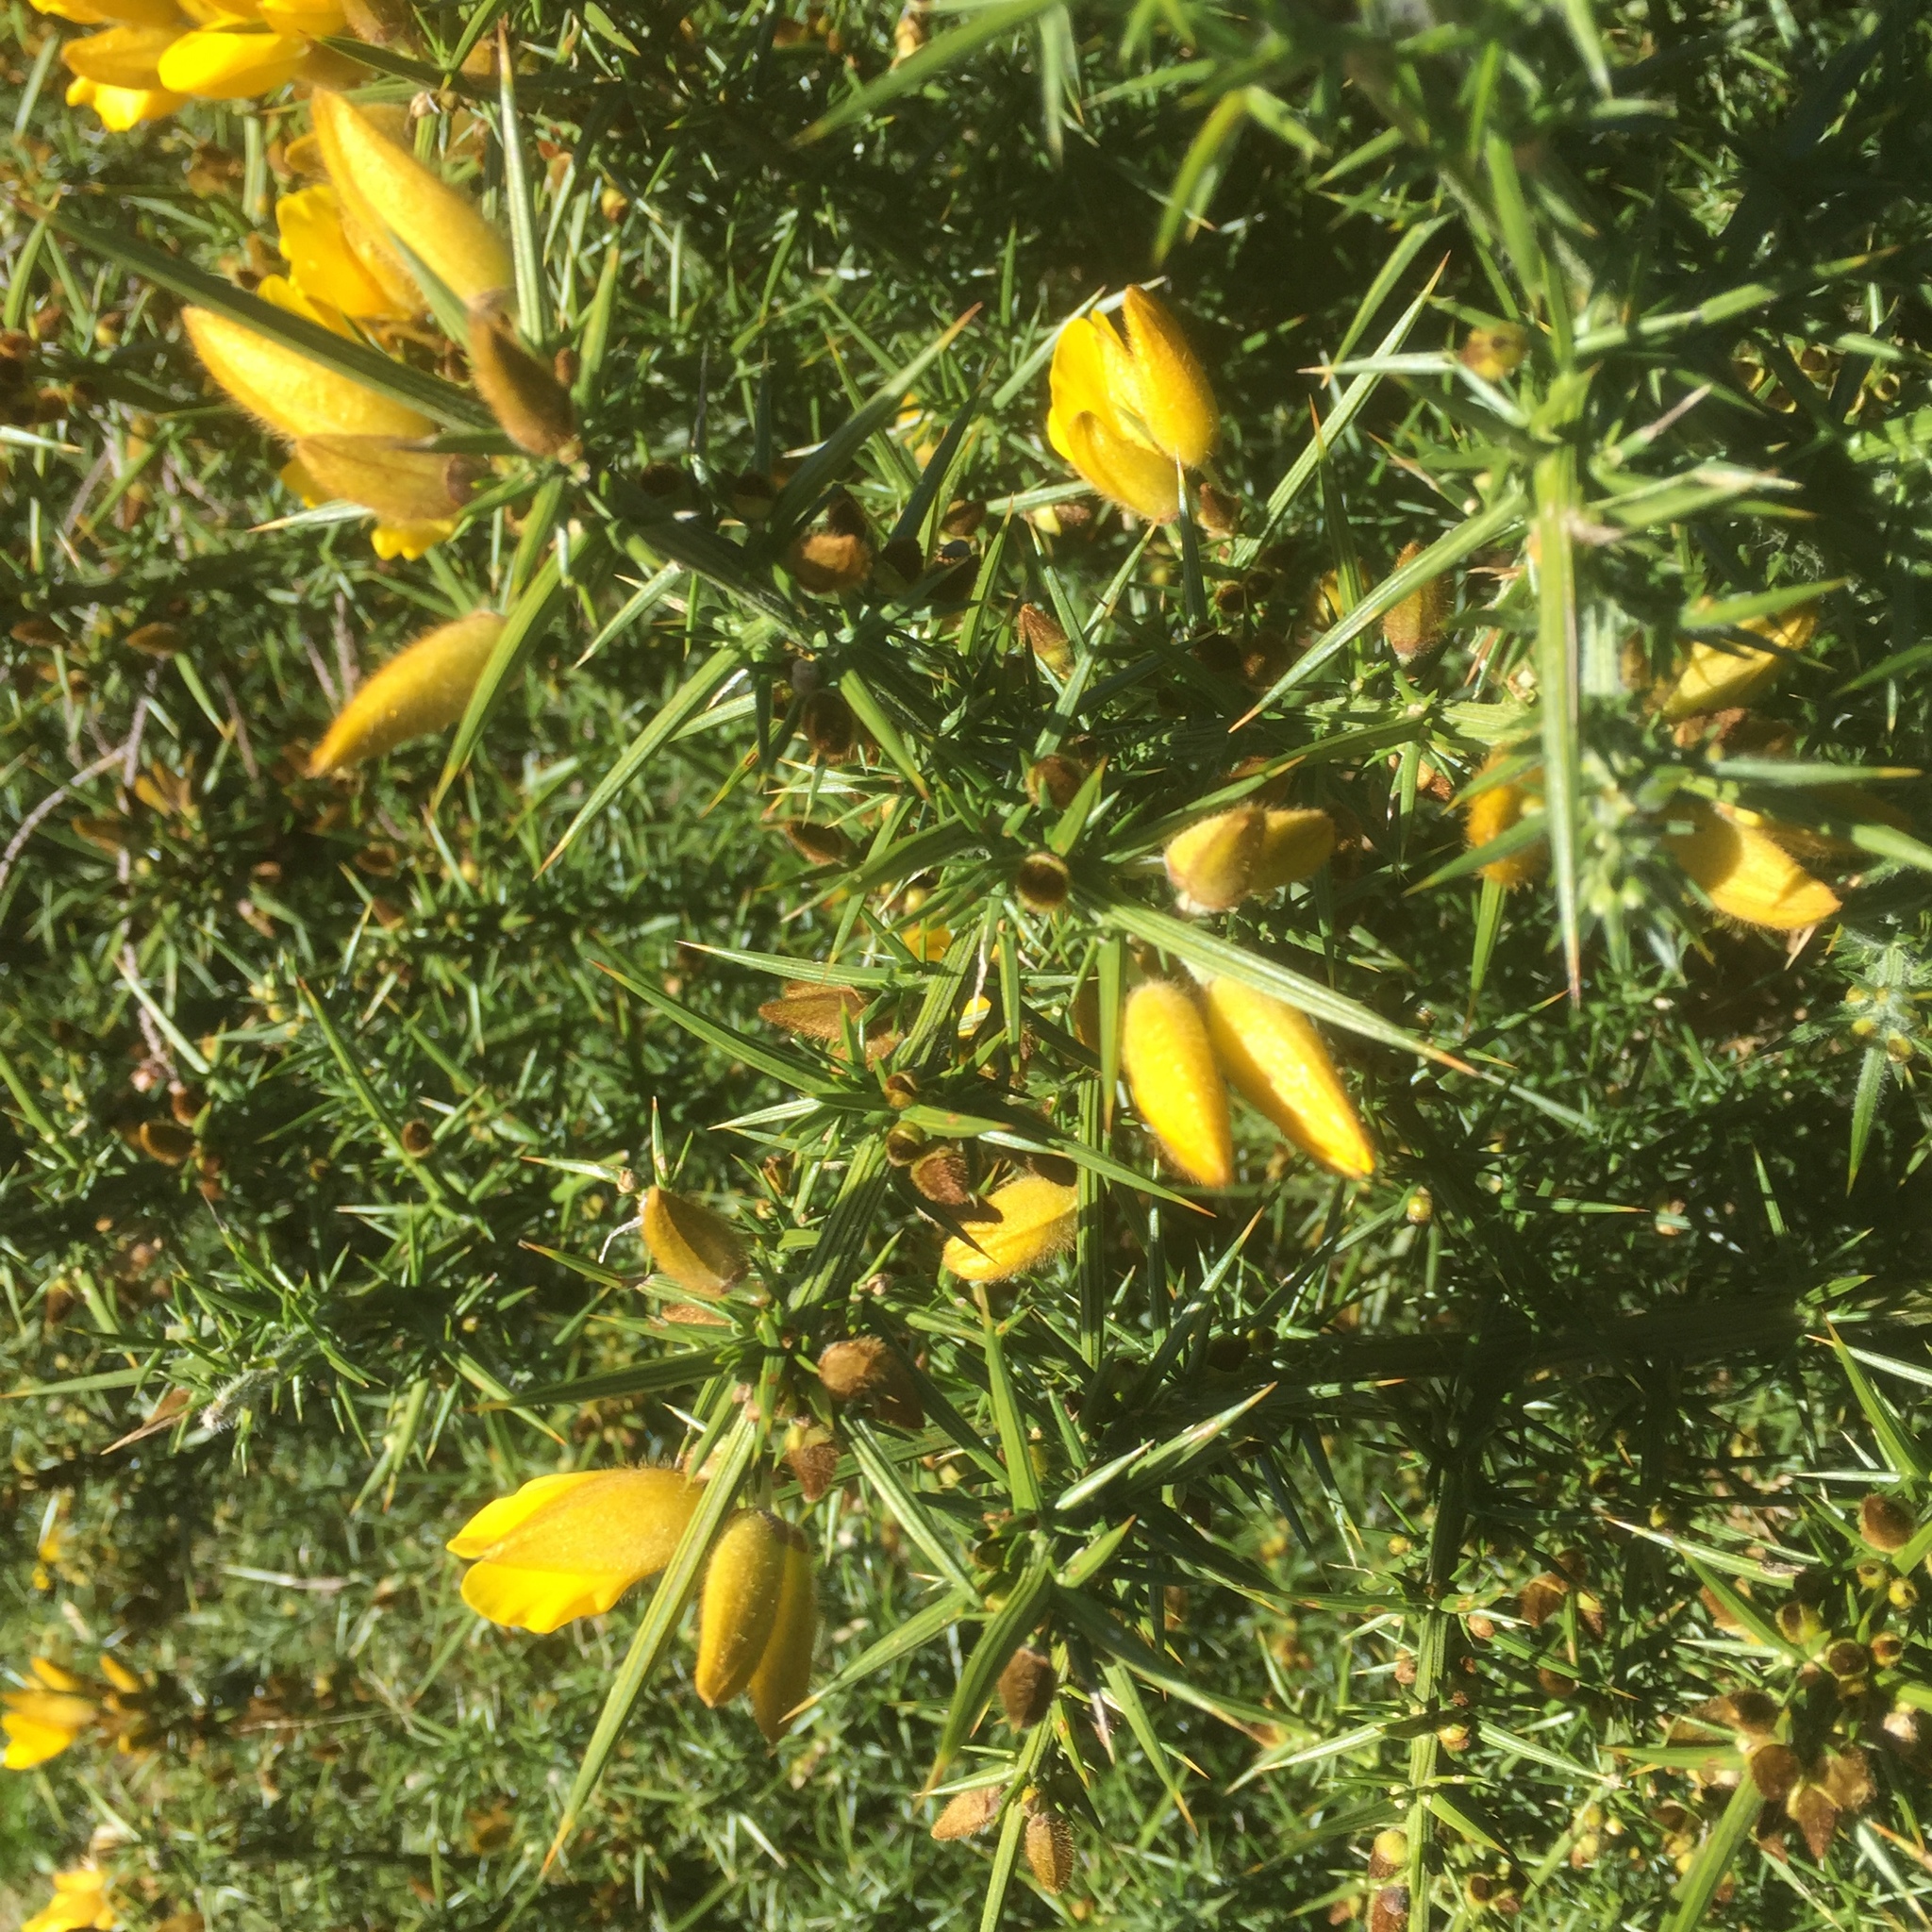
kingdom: Plantae
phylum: Tracheophyta
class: Magnoliopsida
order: Fabales
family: Fabaceae
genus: Ulex
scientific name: Ulex europaeus
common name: Common gorse
